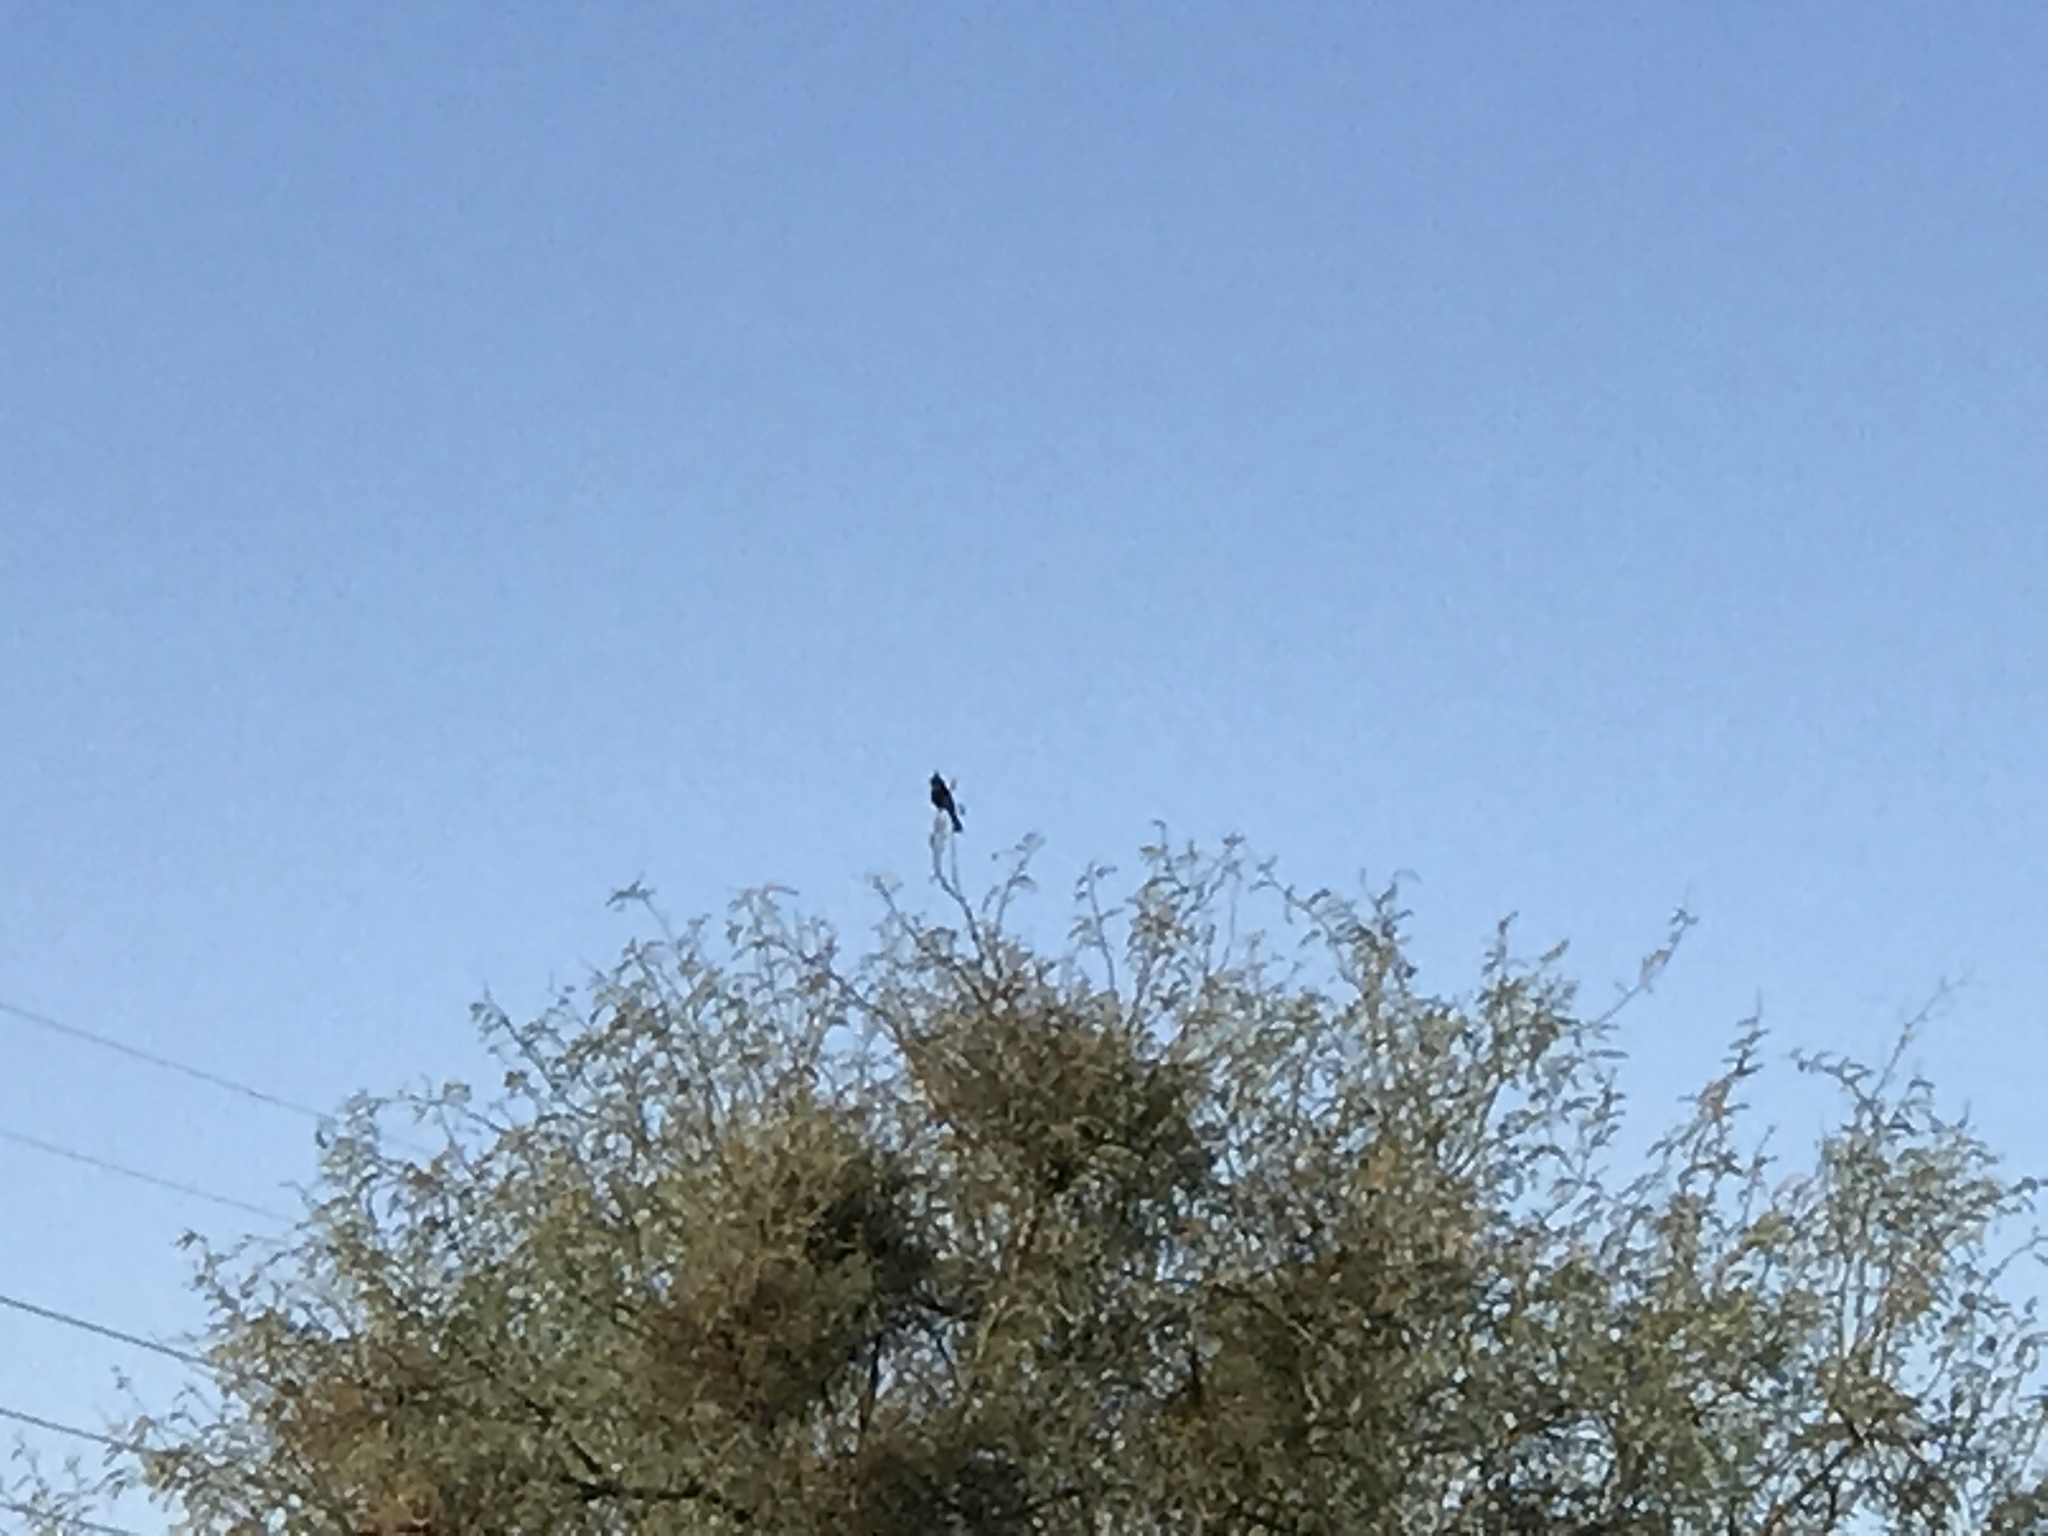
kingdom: Animalia
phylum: Chordata
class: Aves
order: Passeriformes
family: Ptilogonatidae
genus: Phainopepla
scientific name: Phainopepla nitens
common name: Phainopepla
